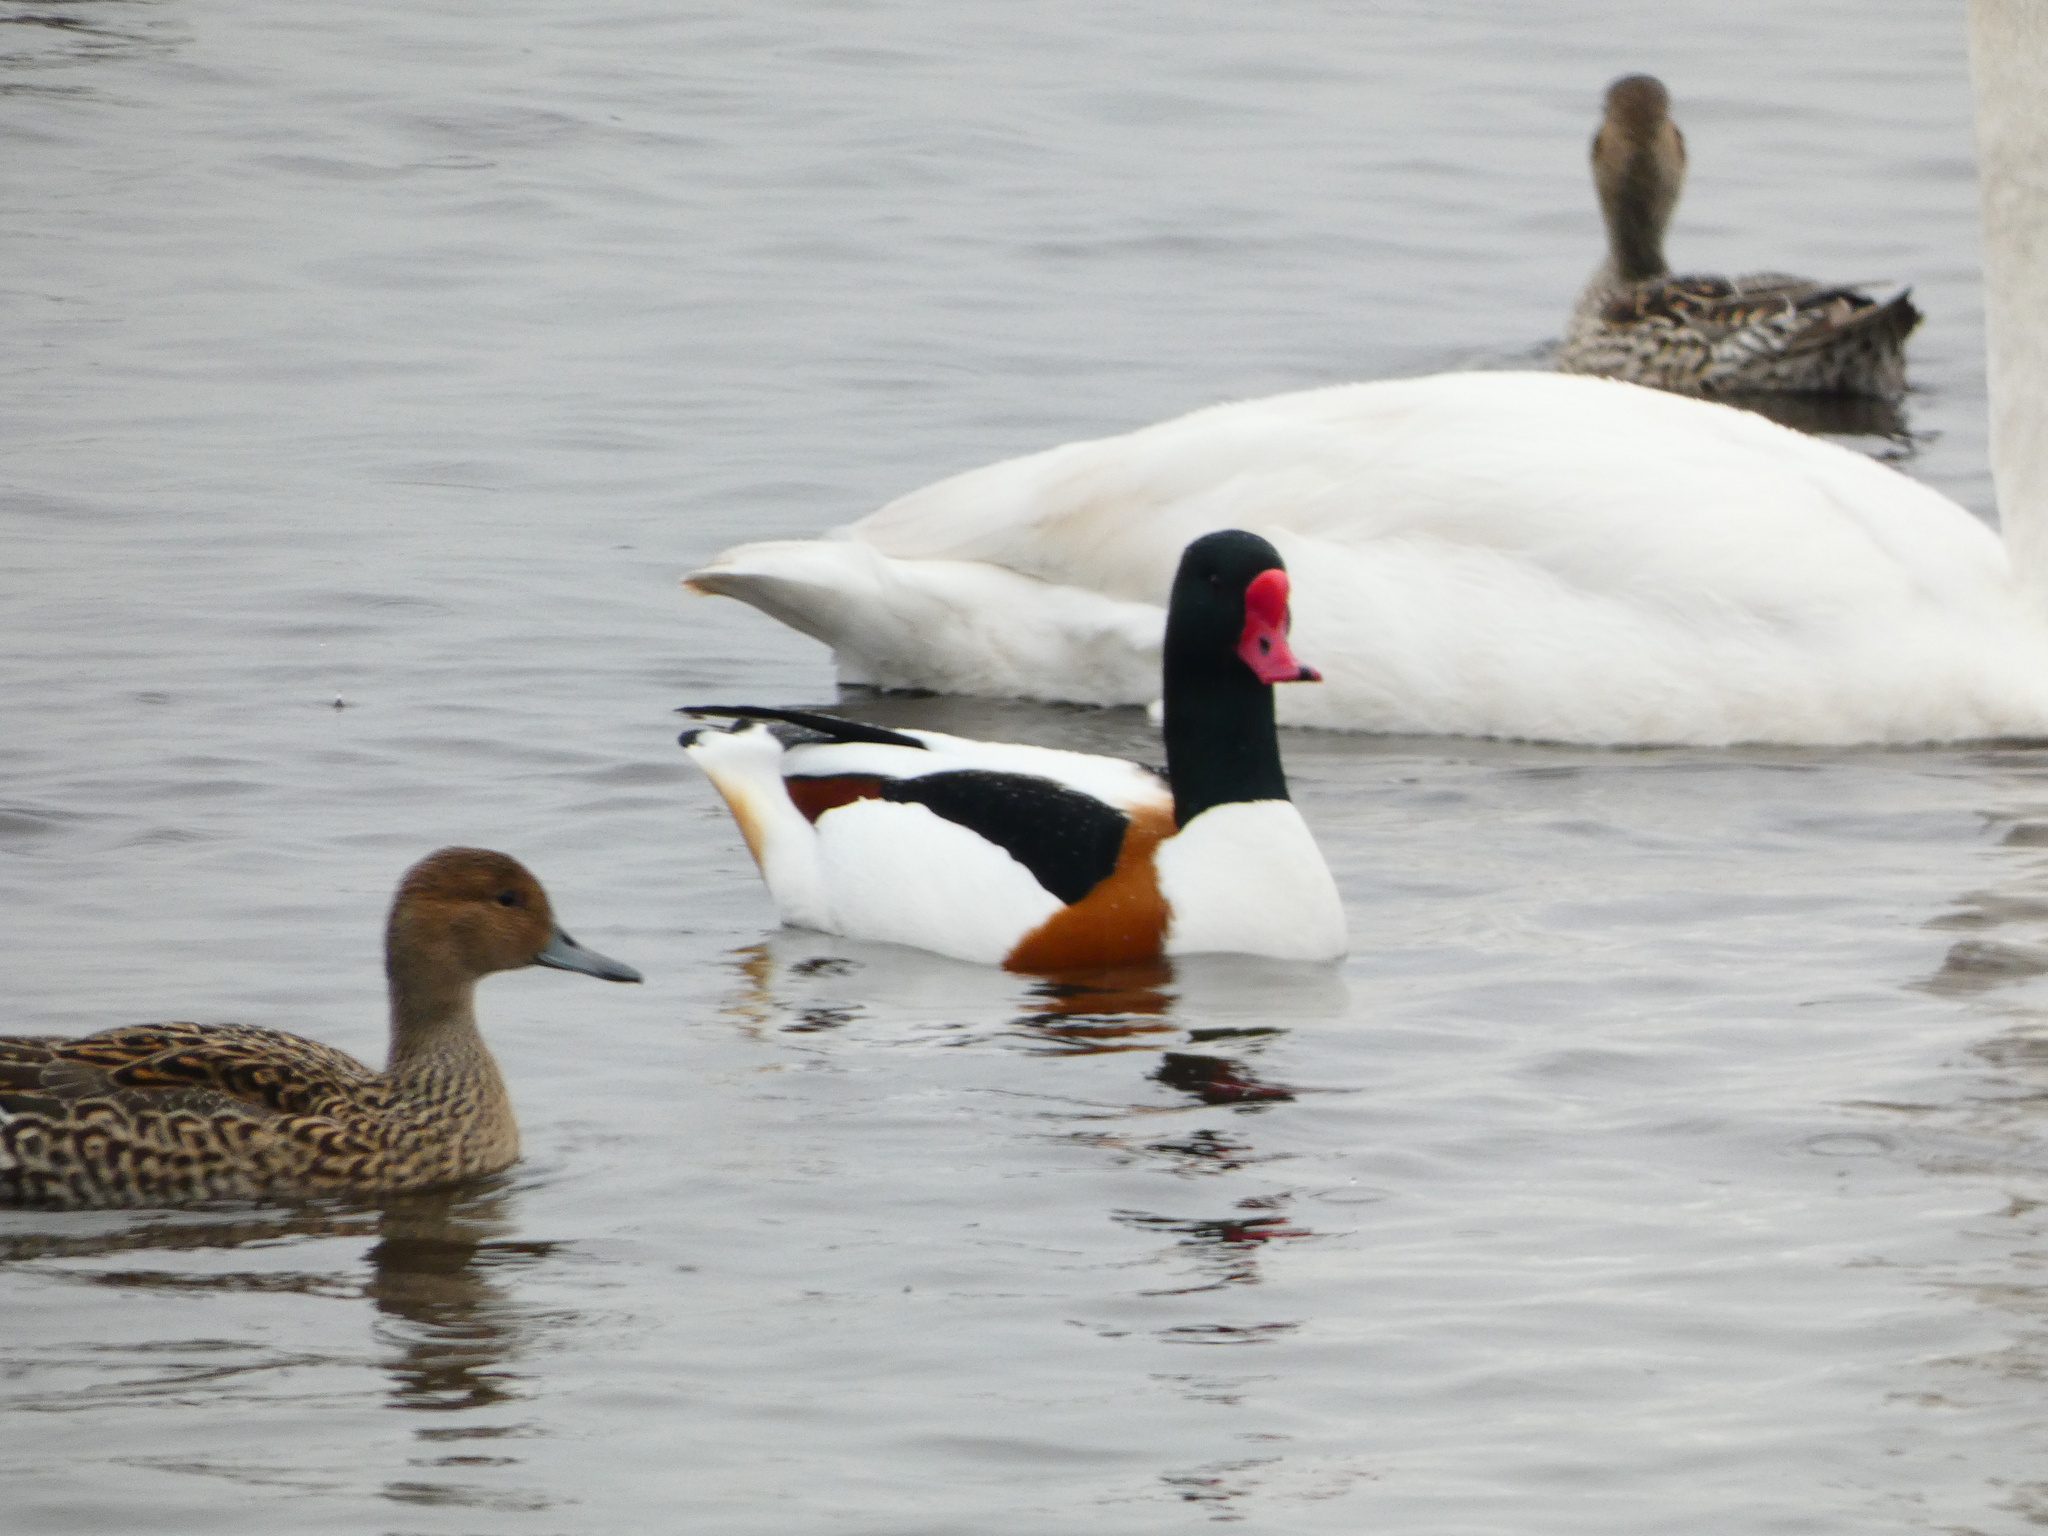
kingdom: Animalia
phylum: Chordata
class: Aves
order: Anseriformes
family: Anatidae
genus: Tadorna
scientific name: Tadorna tadorna
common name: Common shelduck
